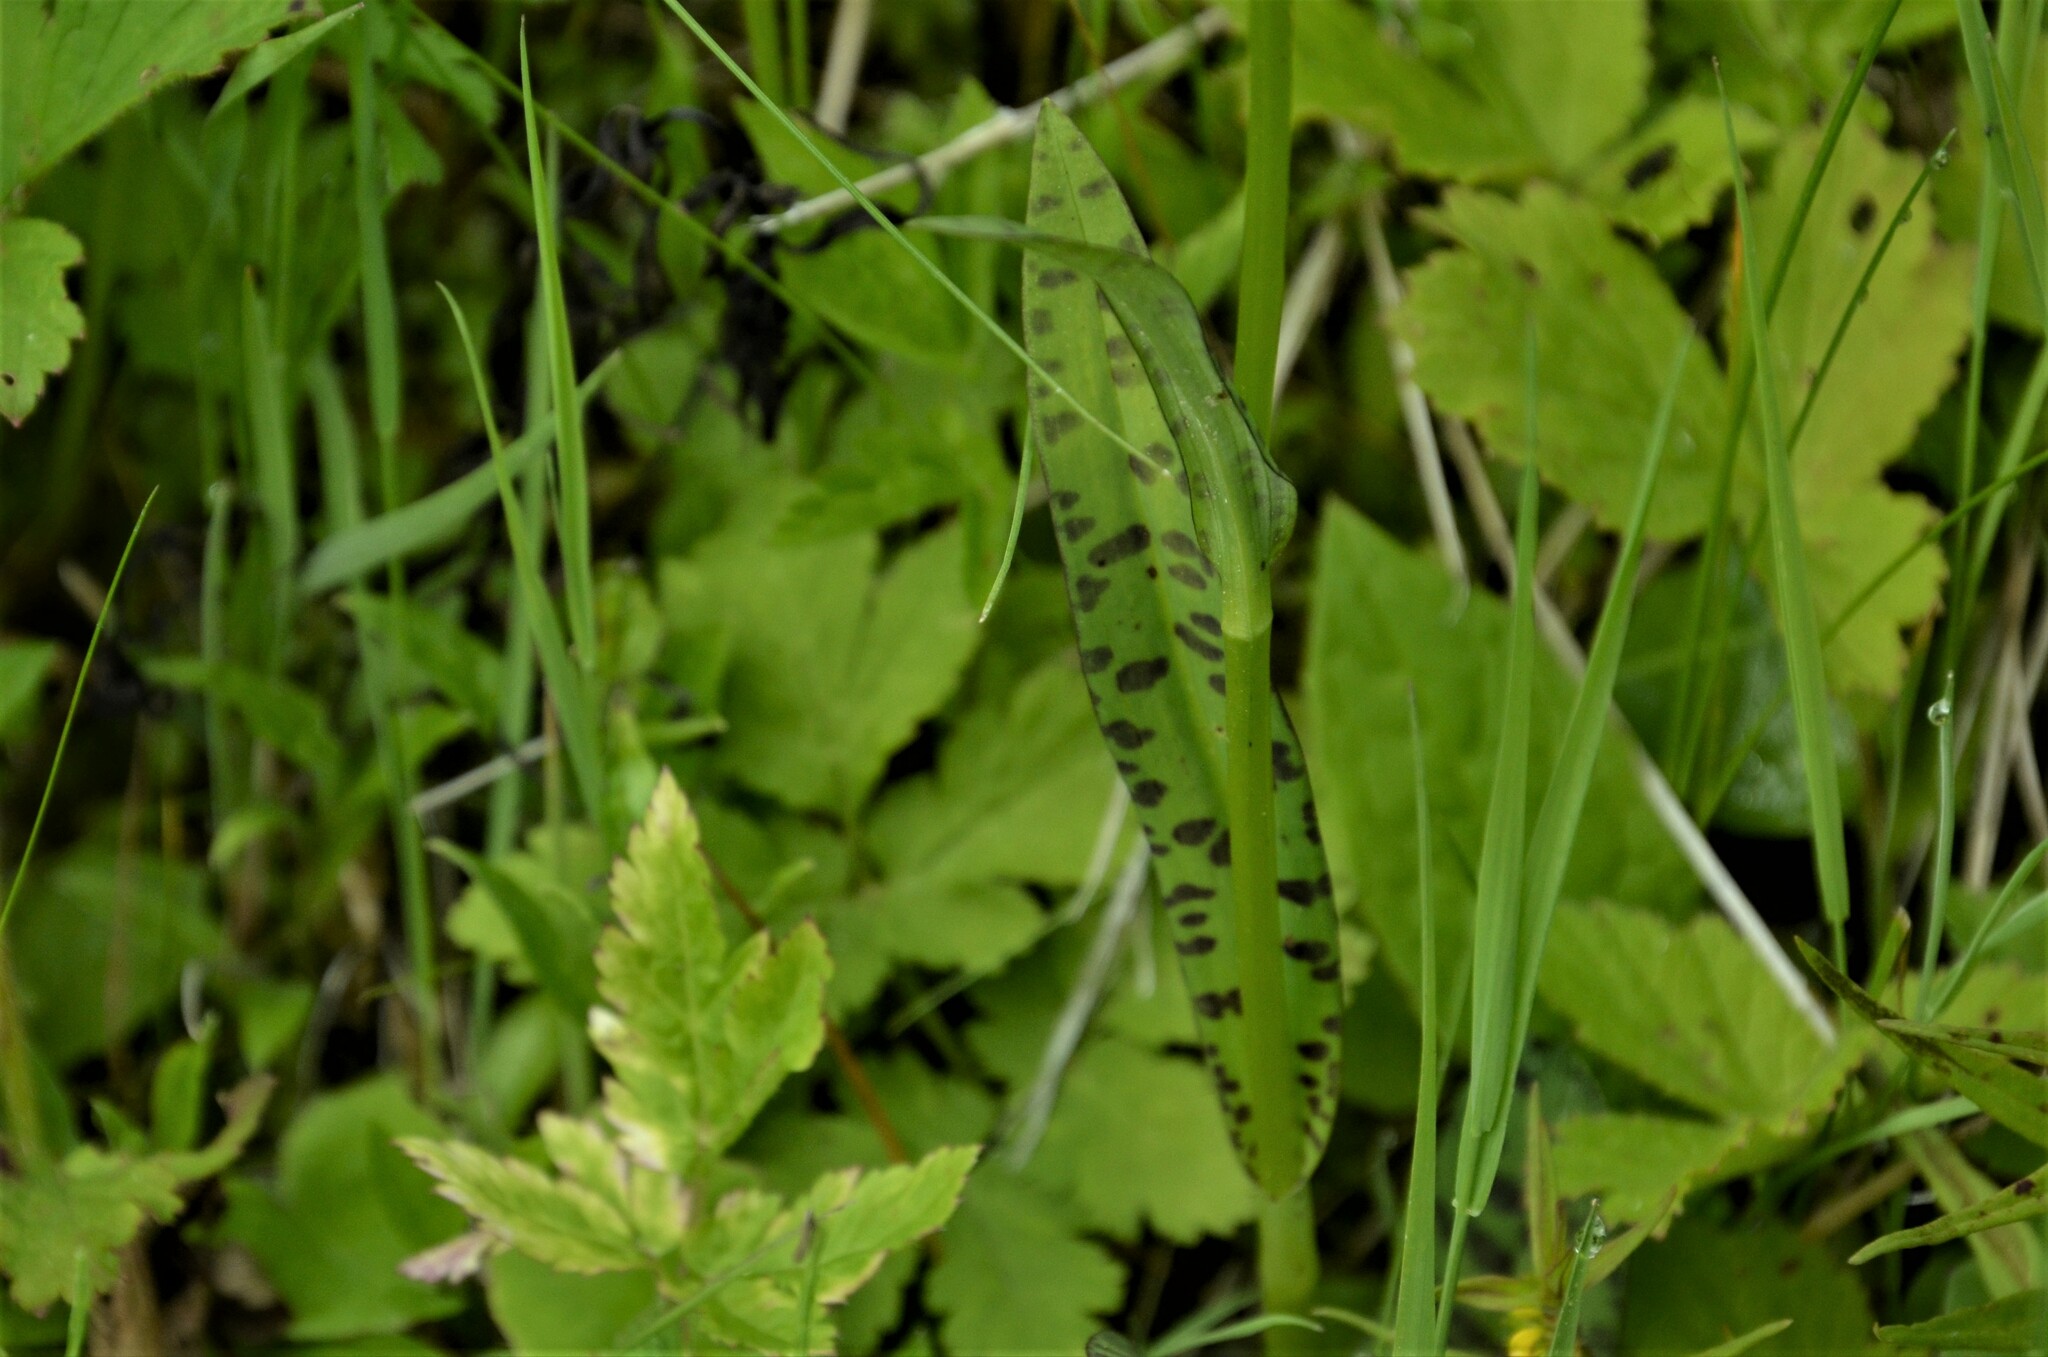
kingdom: Plantae
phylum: Tracheophyta
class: Liliopsida
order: Asparagales
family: Orchidaceae
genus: Dactylorhiza
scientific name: Dactylorhiza maculata
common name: Heath spotted-orchid
